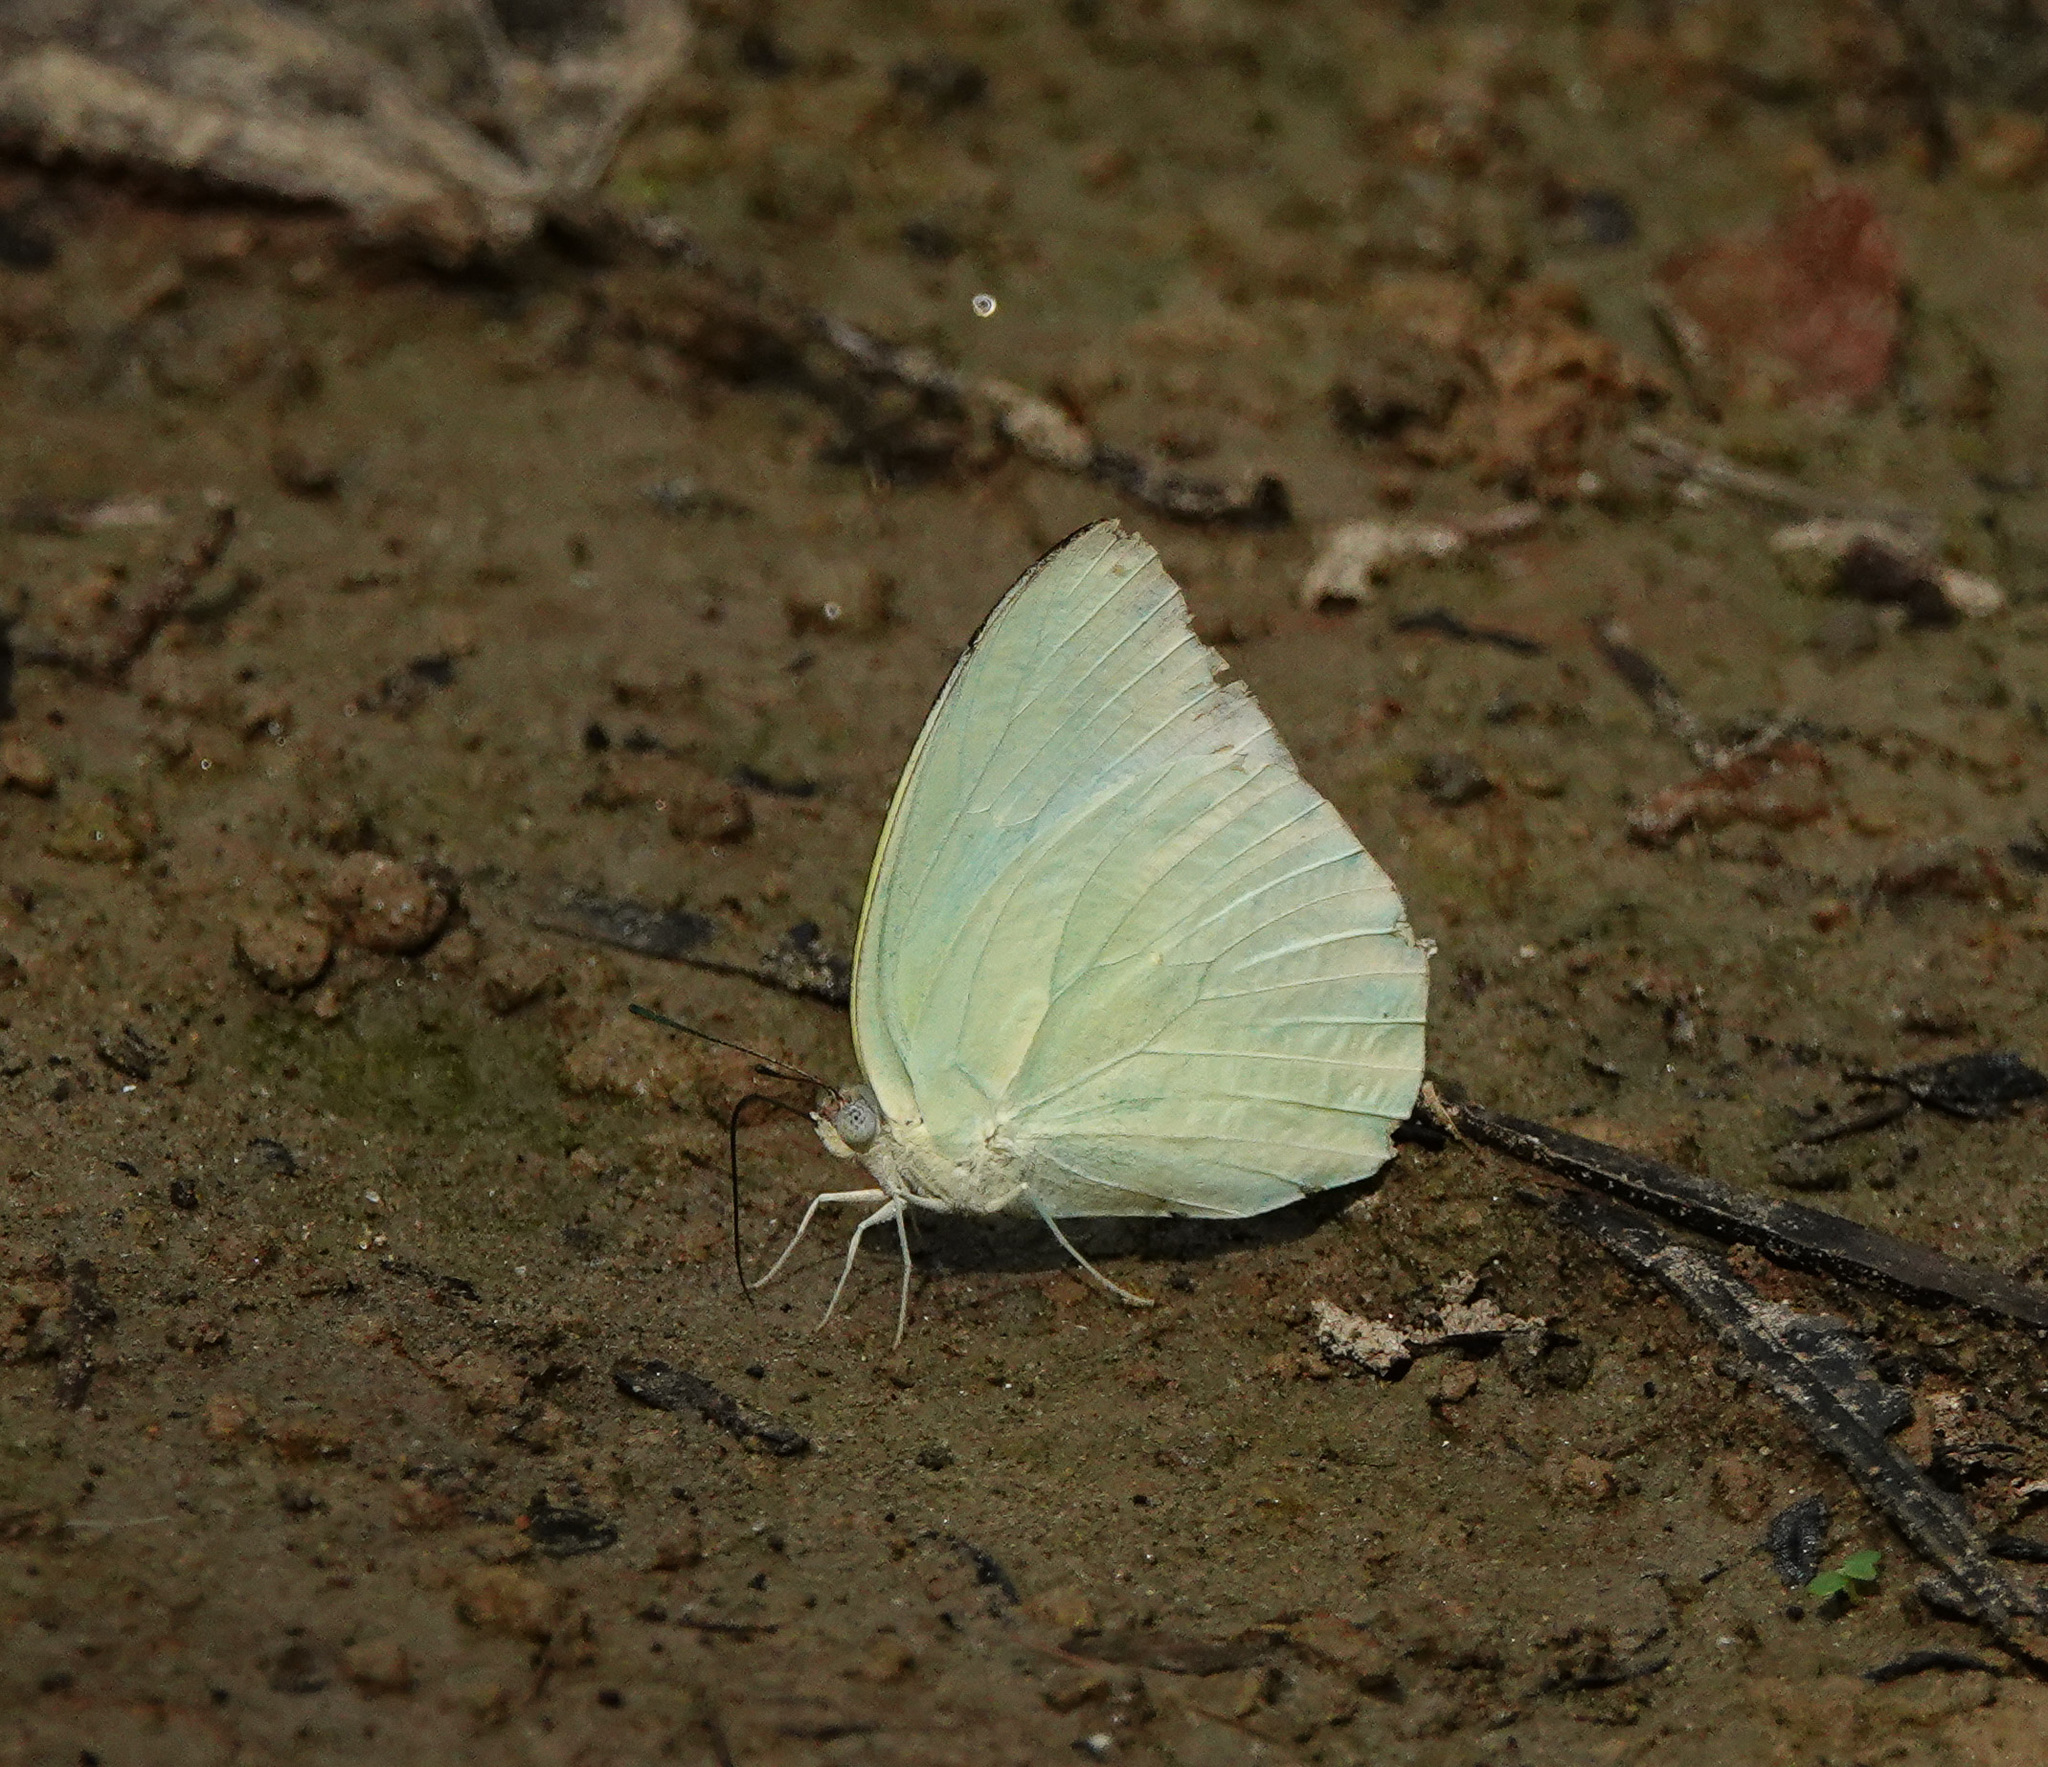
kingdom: Animalia
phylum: Arthropoda
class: Insecta
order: Lepidoptera
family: Pieridae
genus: Catopsilia
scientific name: Catopsilia pomona
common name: Common emigrant
